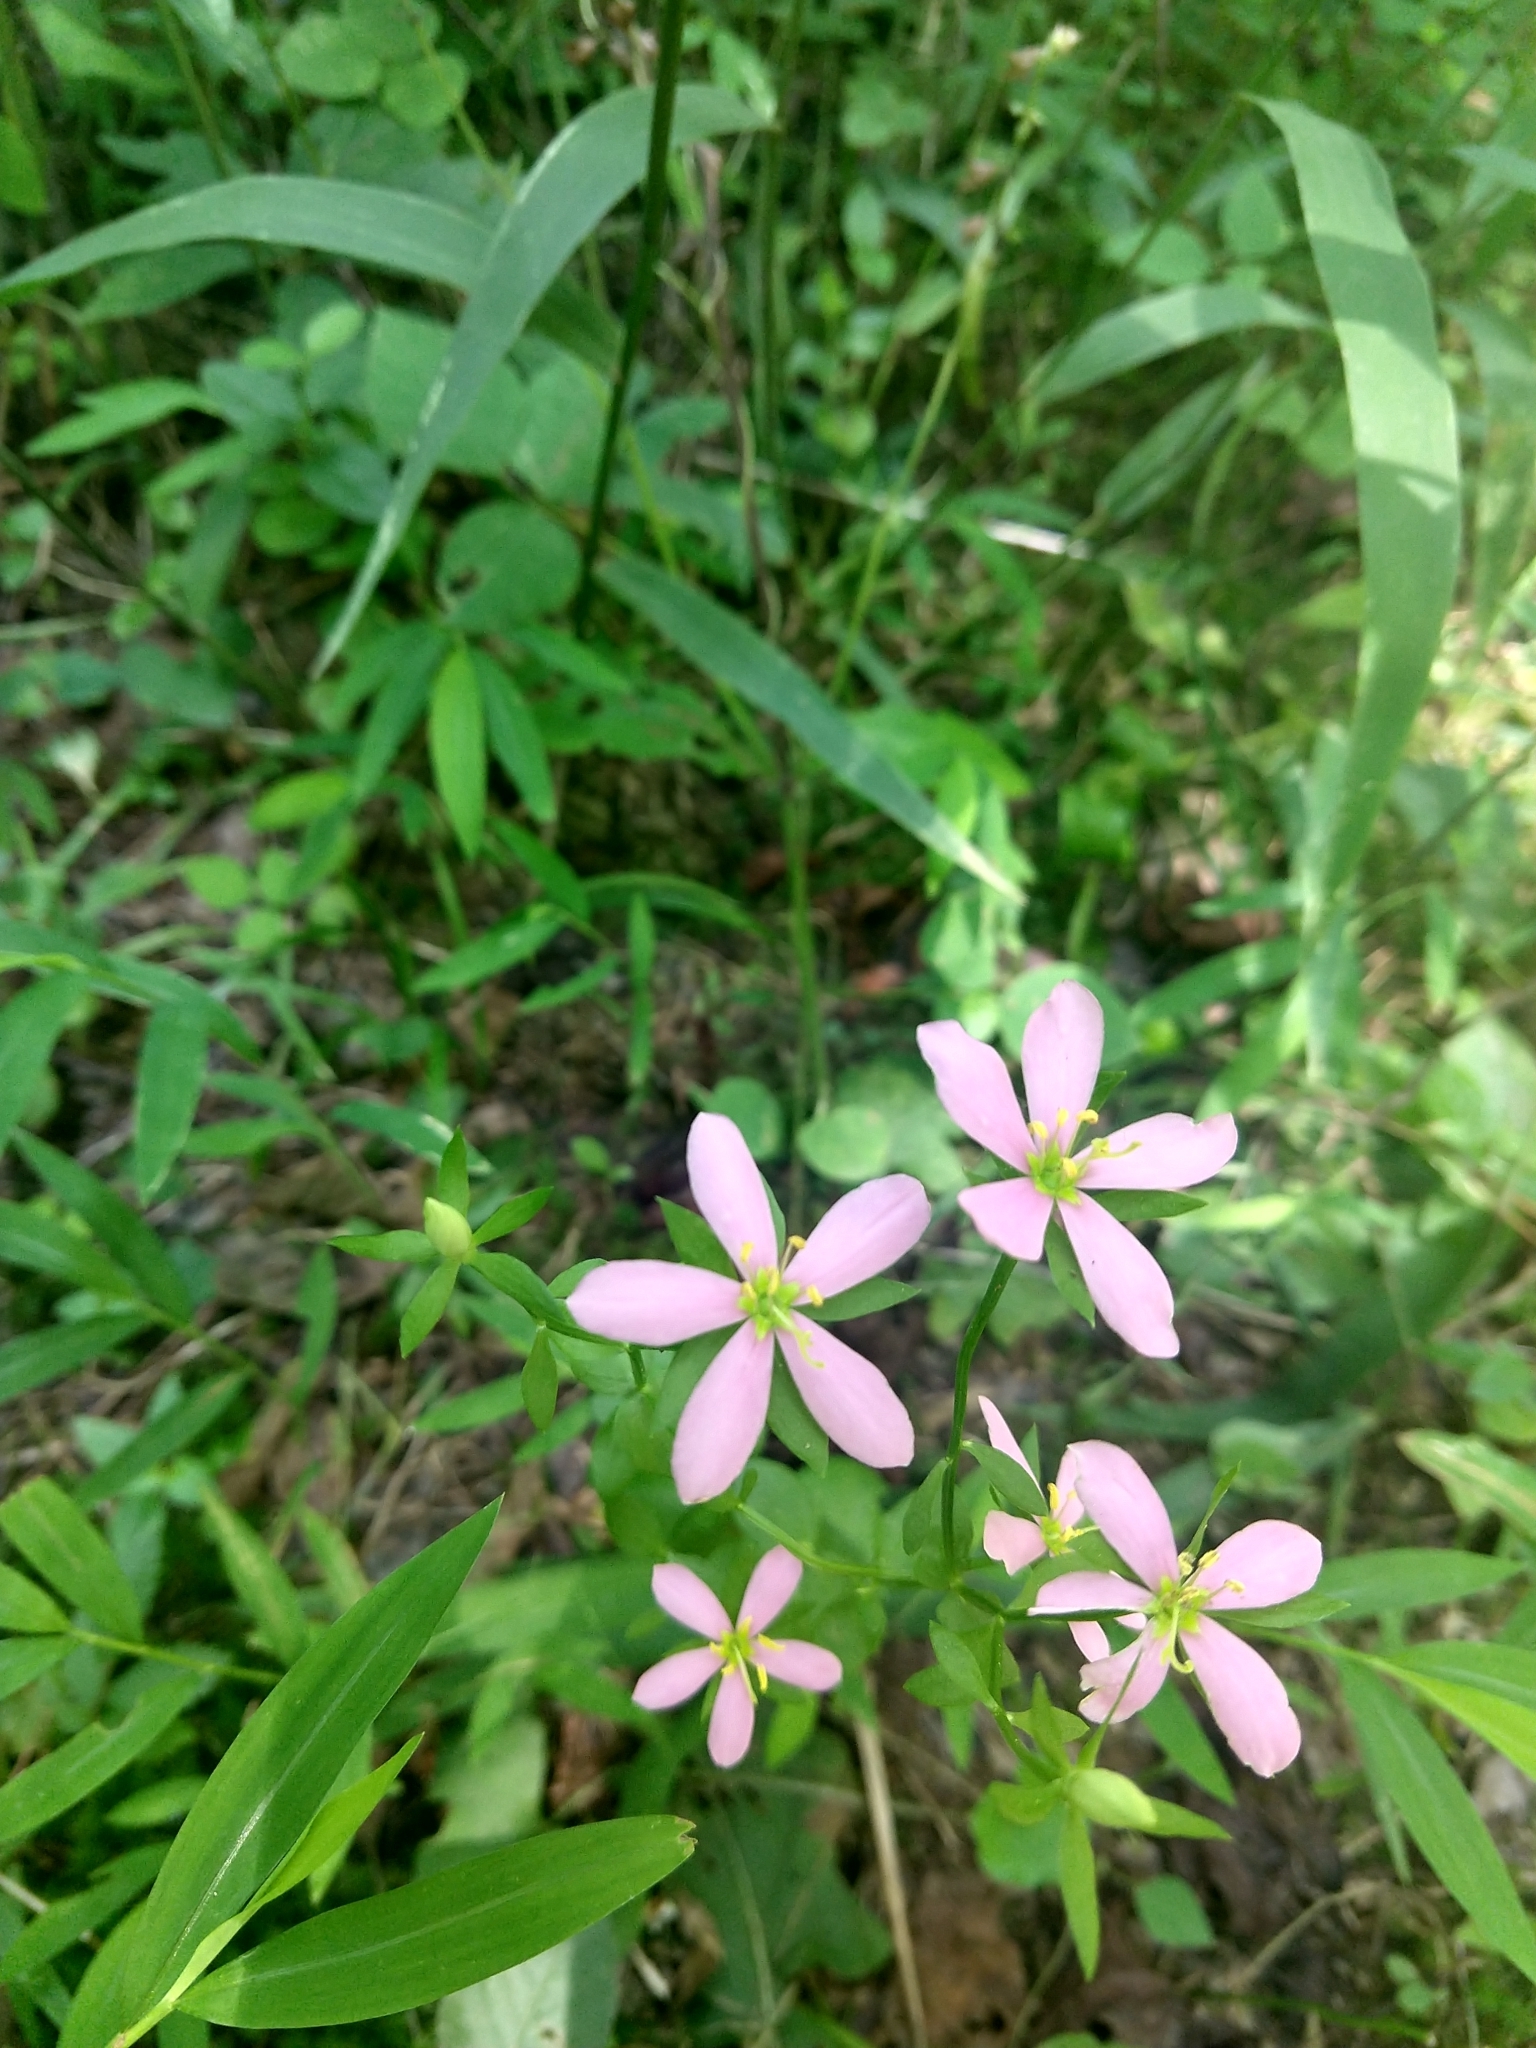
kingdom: Plantae
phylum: Tracheophyta
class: Magnoliopsida
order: Gentianales
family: Gentianaceae
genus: Sabatia
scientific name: Sabatia angularis
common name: Rose-pink
